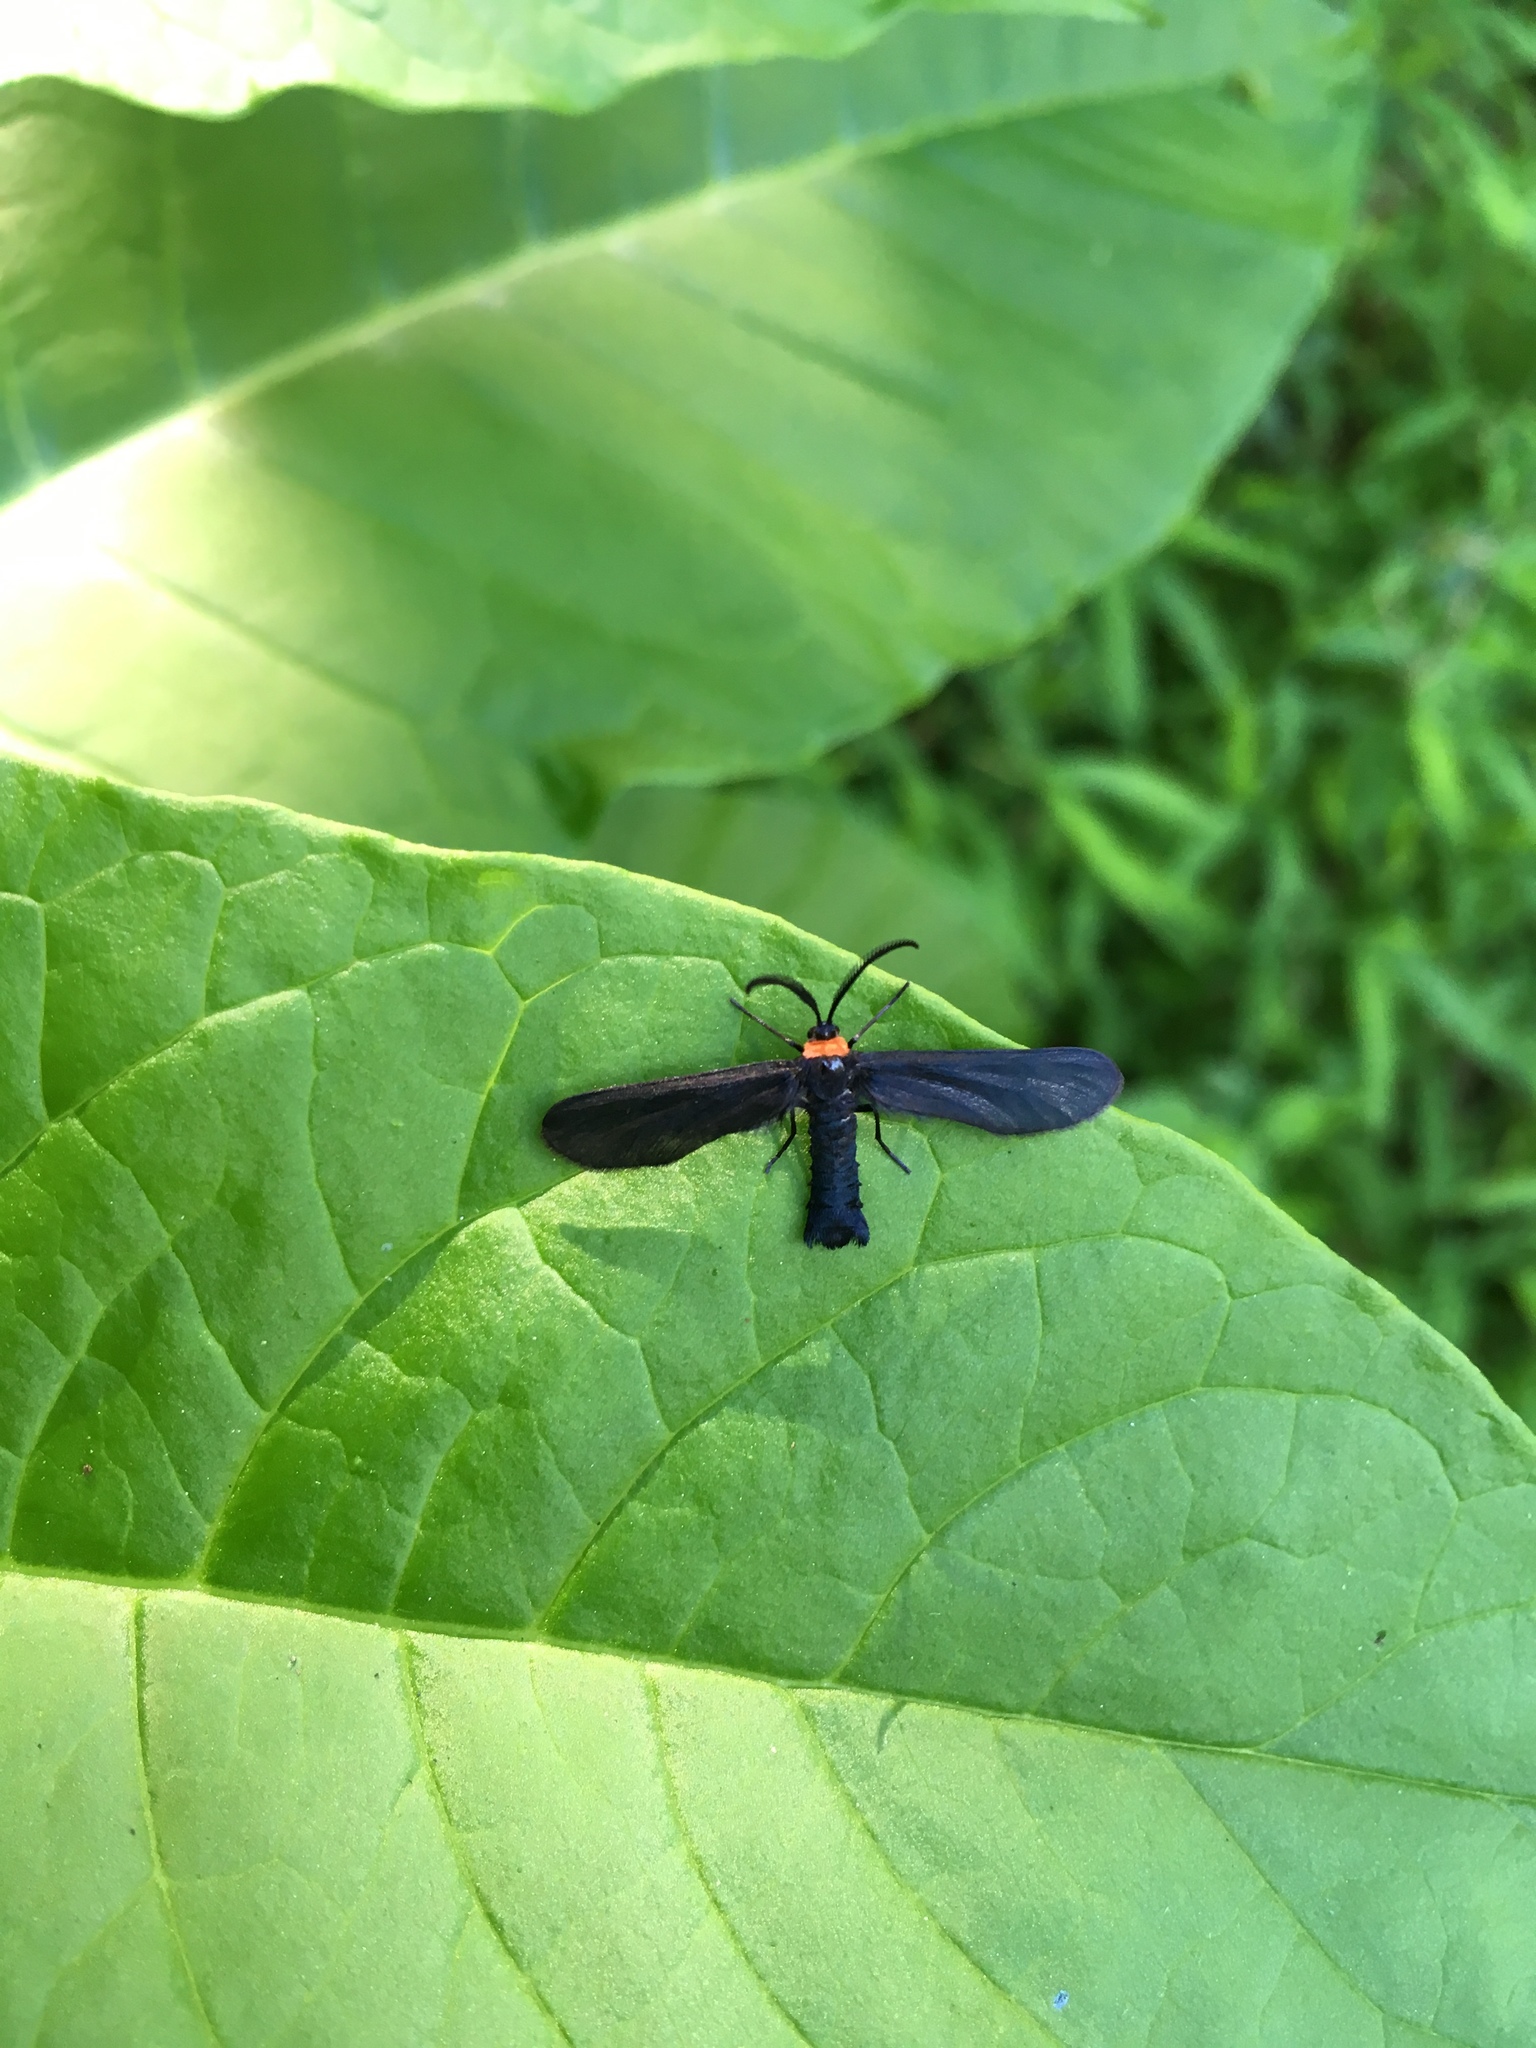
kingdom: Animalia
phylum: Arthropoda
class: Insecta
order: Lepidoptera
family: Zygaenidae
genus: Harrisina
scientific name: Harrisina americana
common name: Grapeleaf skeletonizer moth
